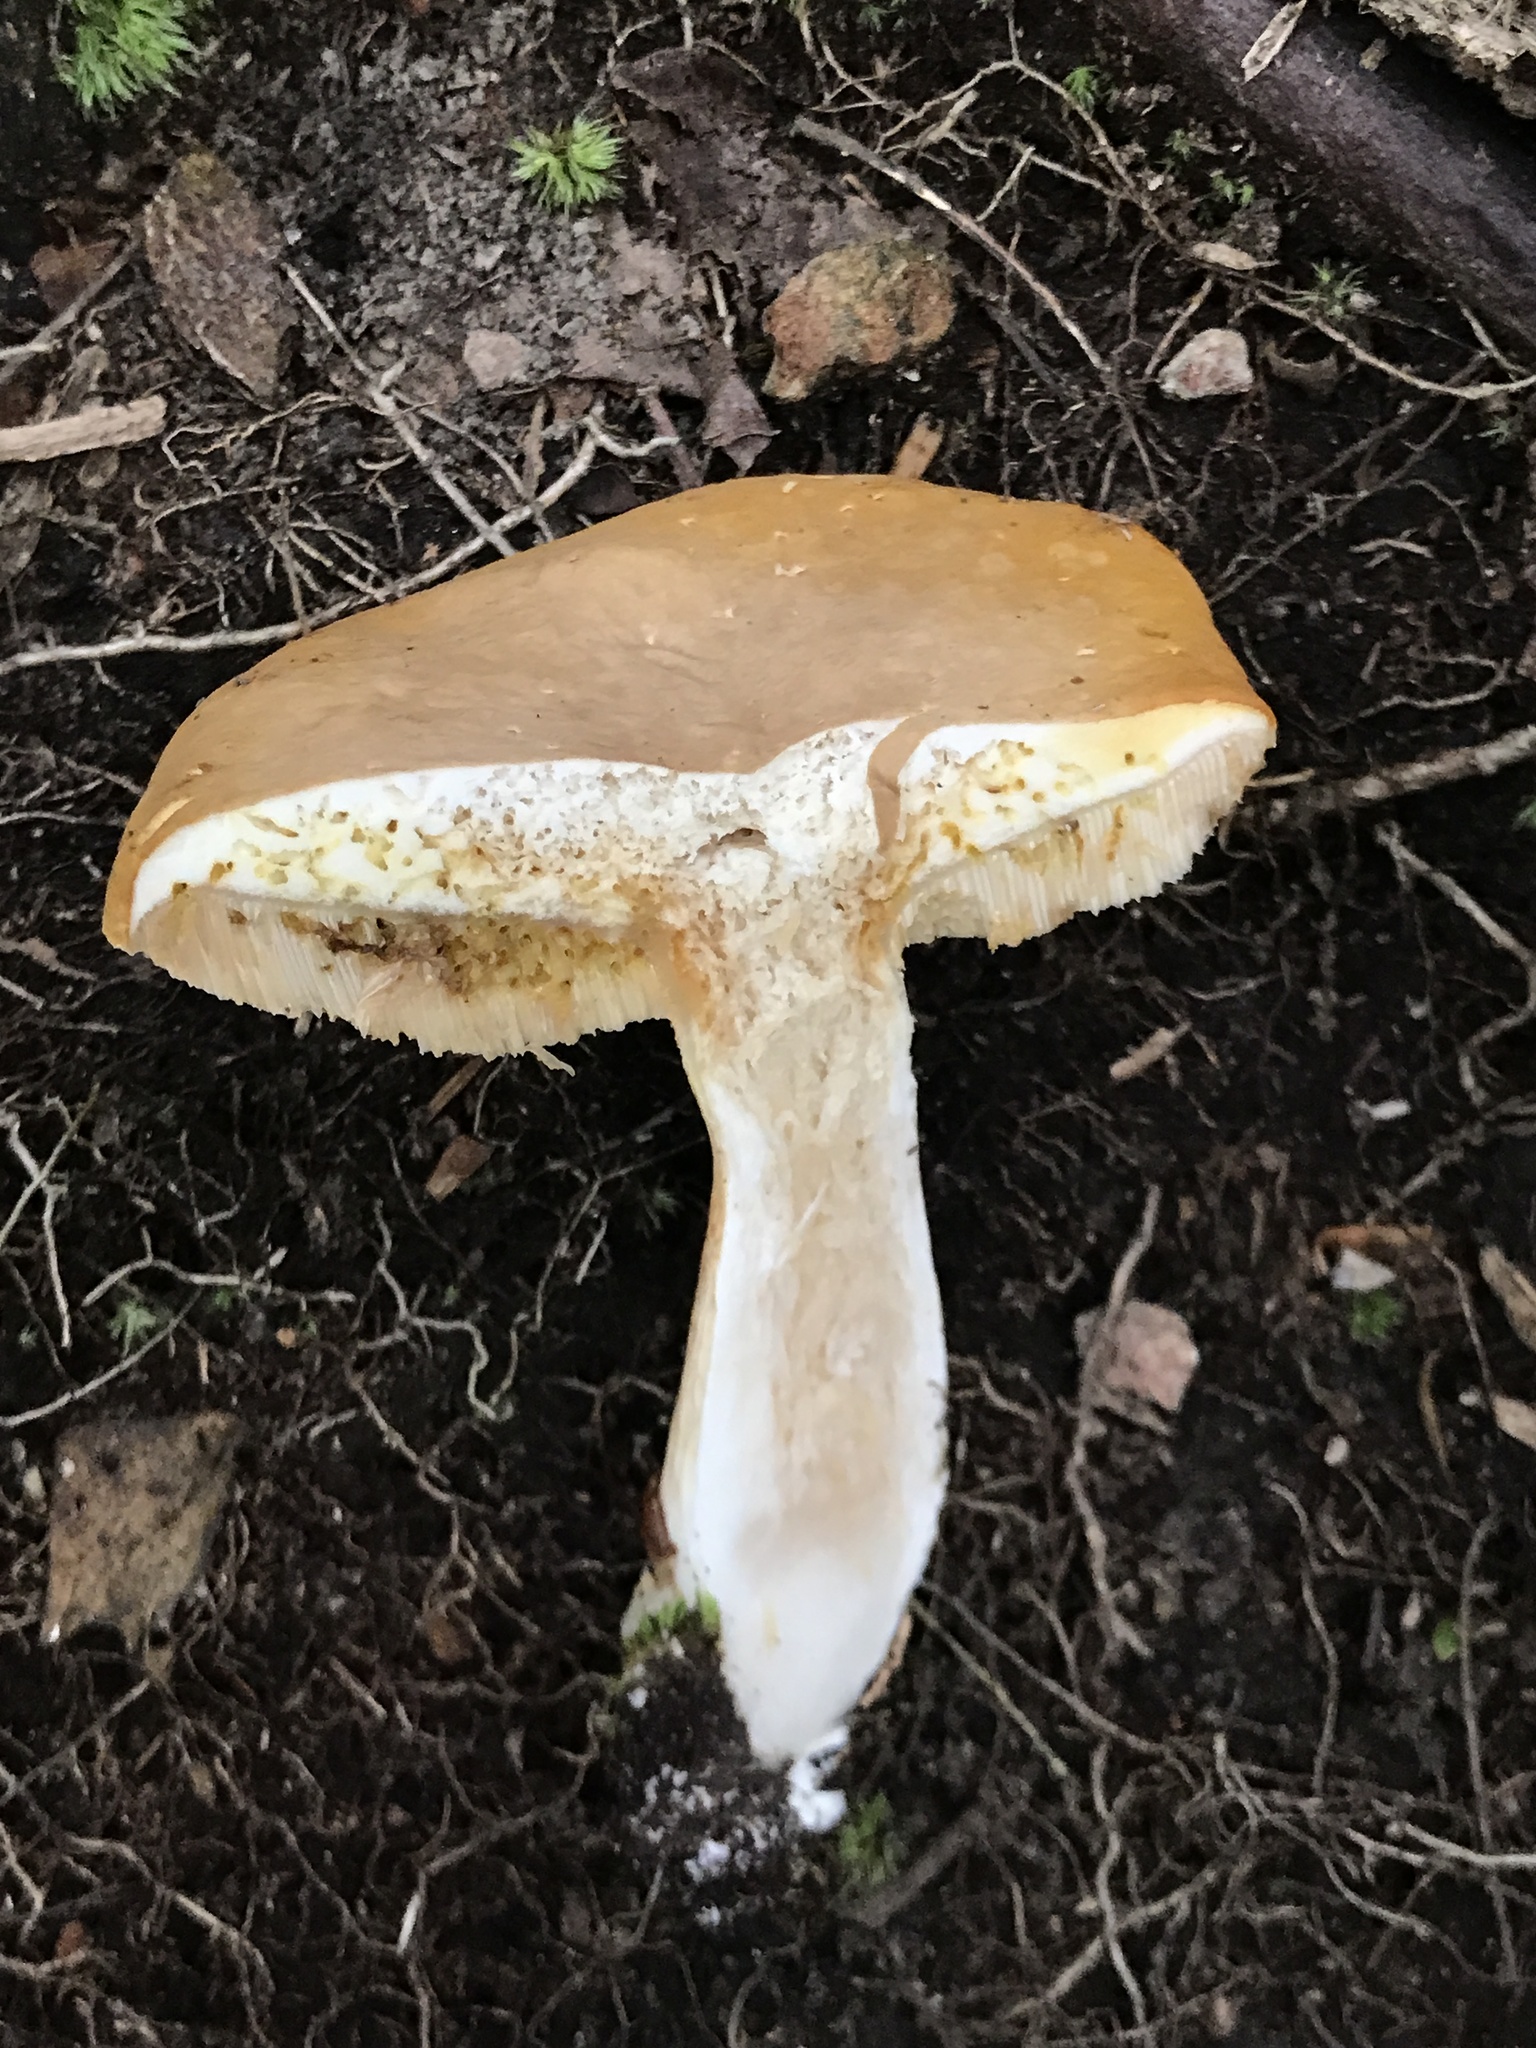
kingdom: Fungi
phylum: Basidiomycota
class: Agaricomycetes
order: Boletales
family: Boletaceae
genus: Xanthoconium
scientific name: Xanthoconium affine
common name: Spotted bolete
